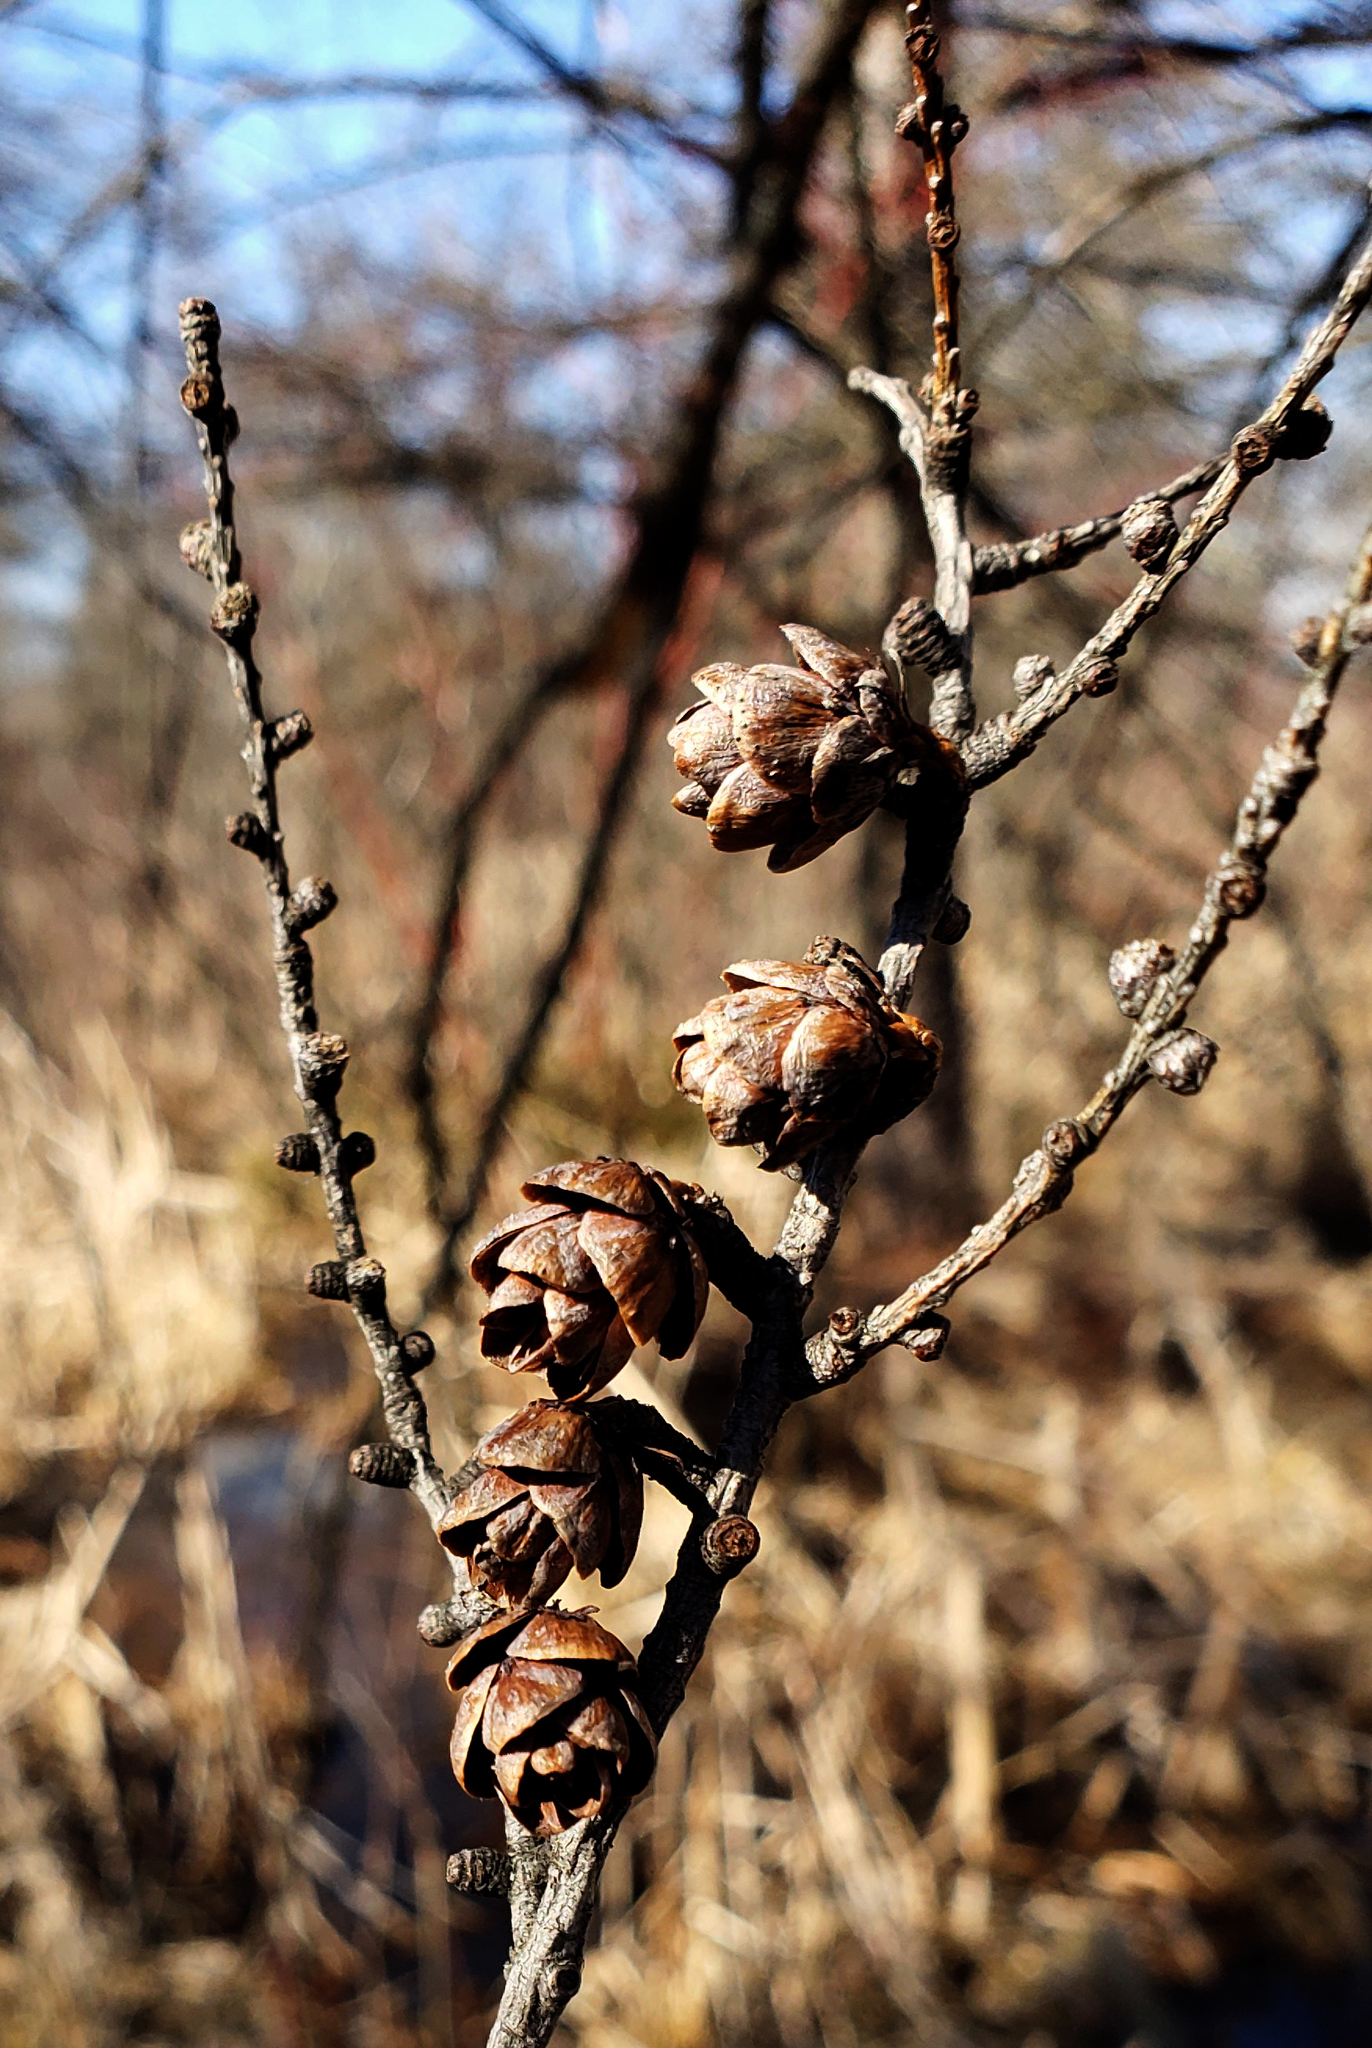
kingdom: Plantae
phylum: Tracheophyta
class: Pinopsida
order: Pinales
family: Pinaceae
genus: Larix
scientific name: Larix laricina
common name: American larch
